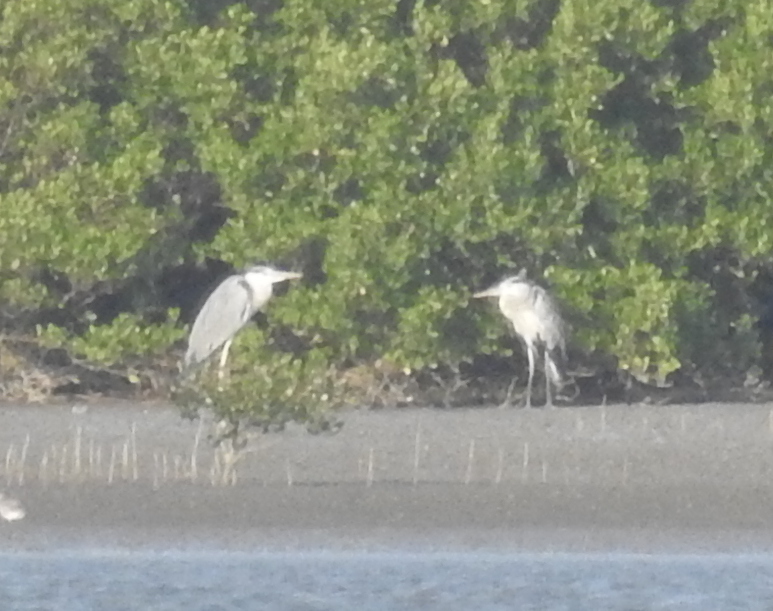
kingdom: Animalia
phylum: Chordata
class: Aves
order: Pelecaniformes
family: Ardeidae
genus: Ardea
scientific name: Ardea cinerea
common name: Grey heron
